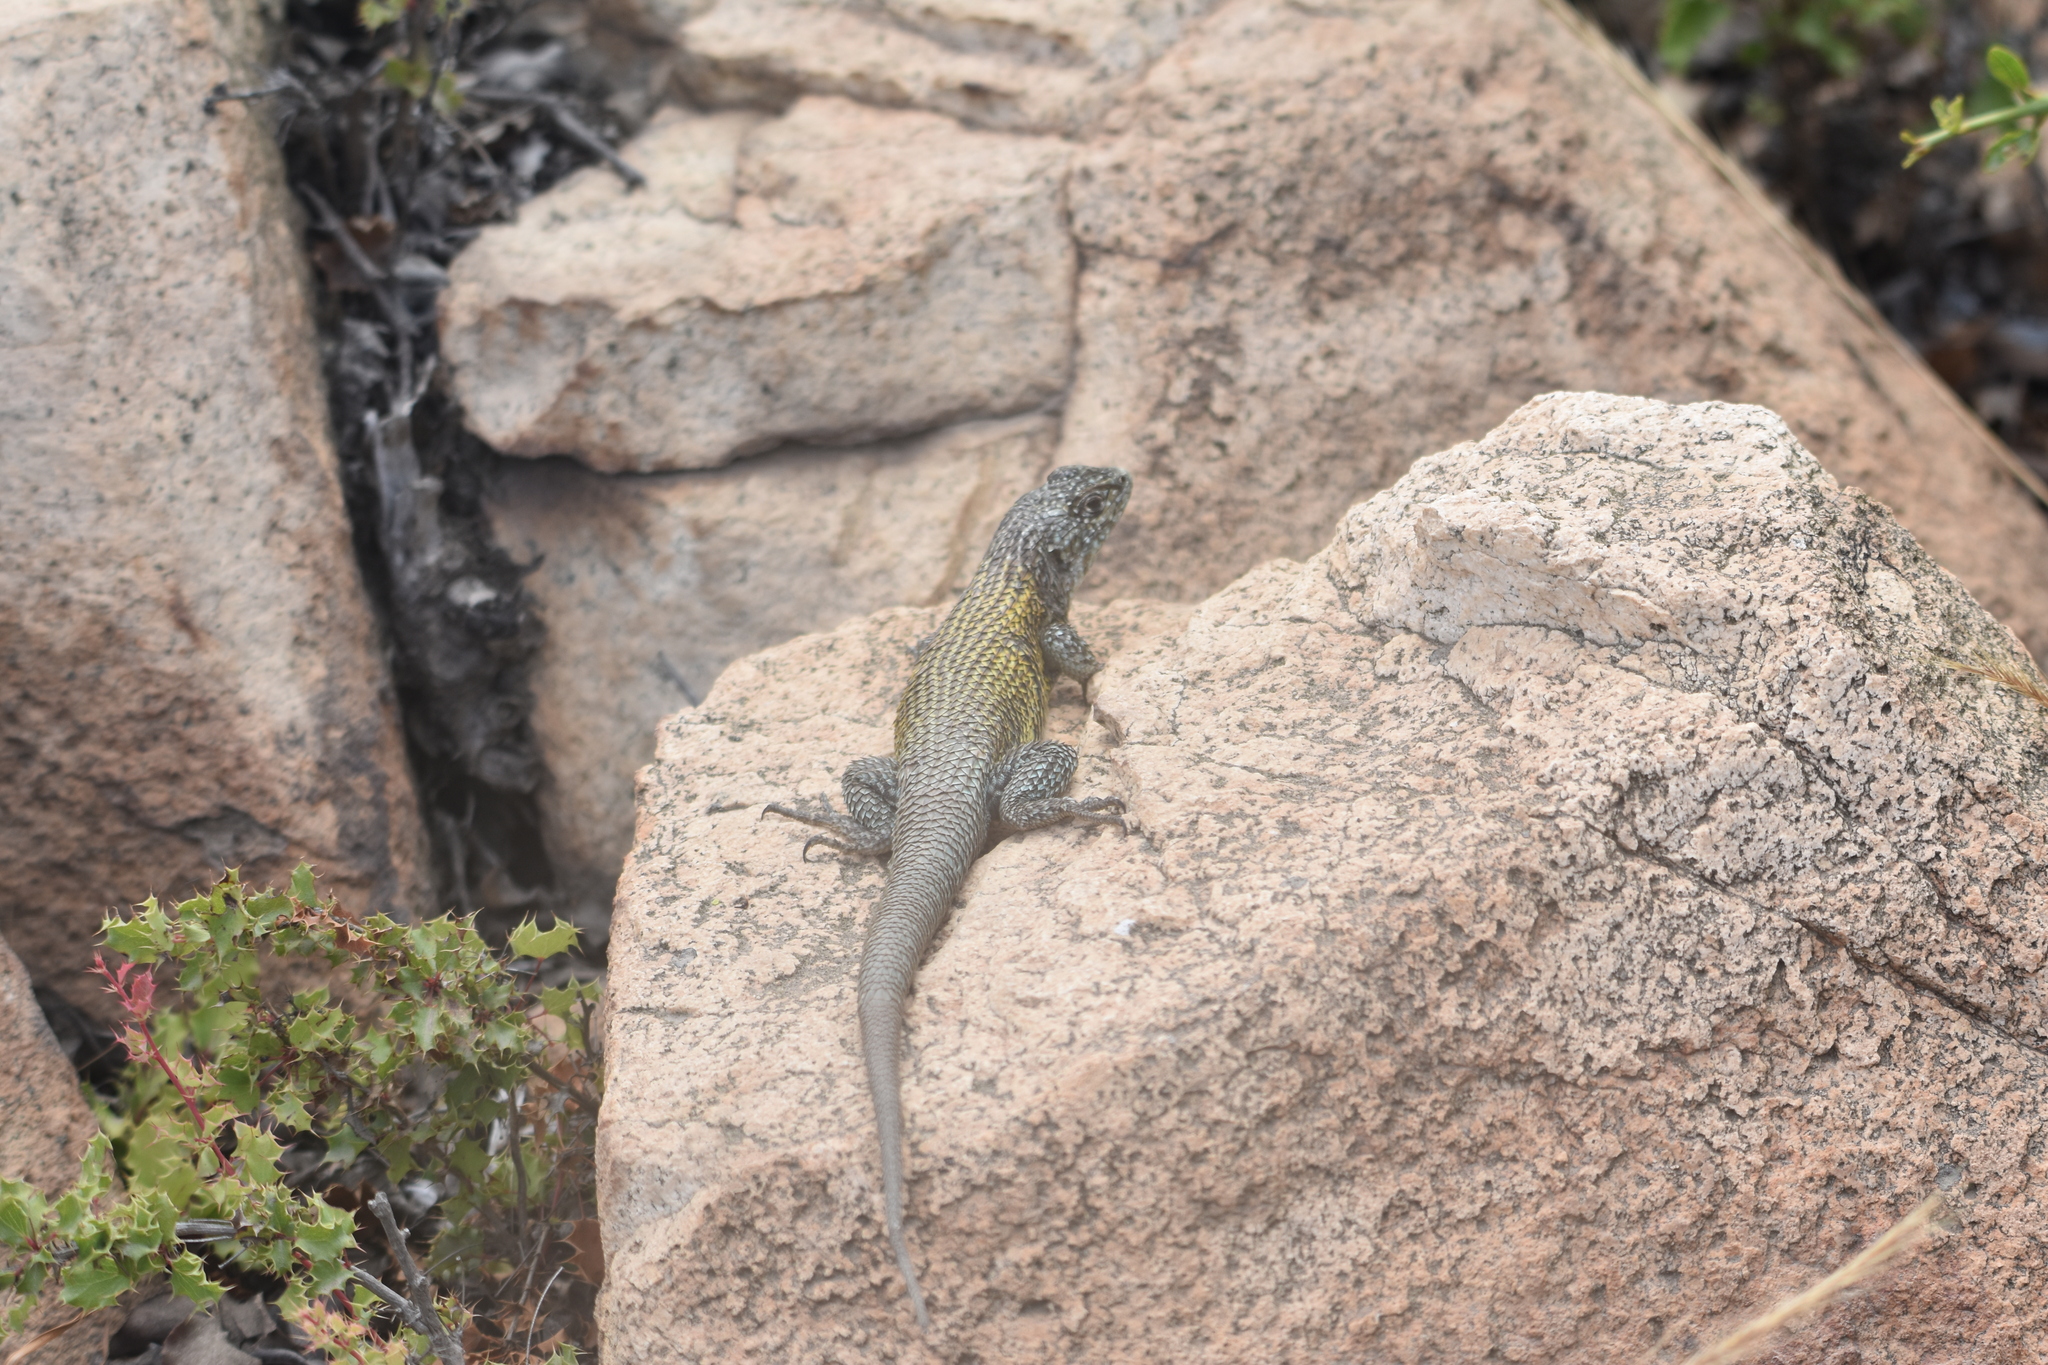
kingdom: Animalia
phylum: Chordata
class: Squamata
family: Liolaemidae
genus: Liolaemus
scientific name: Liolaemus nitidus
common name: Shining tree iguana
